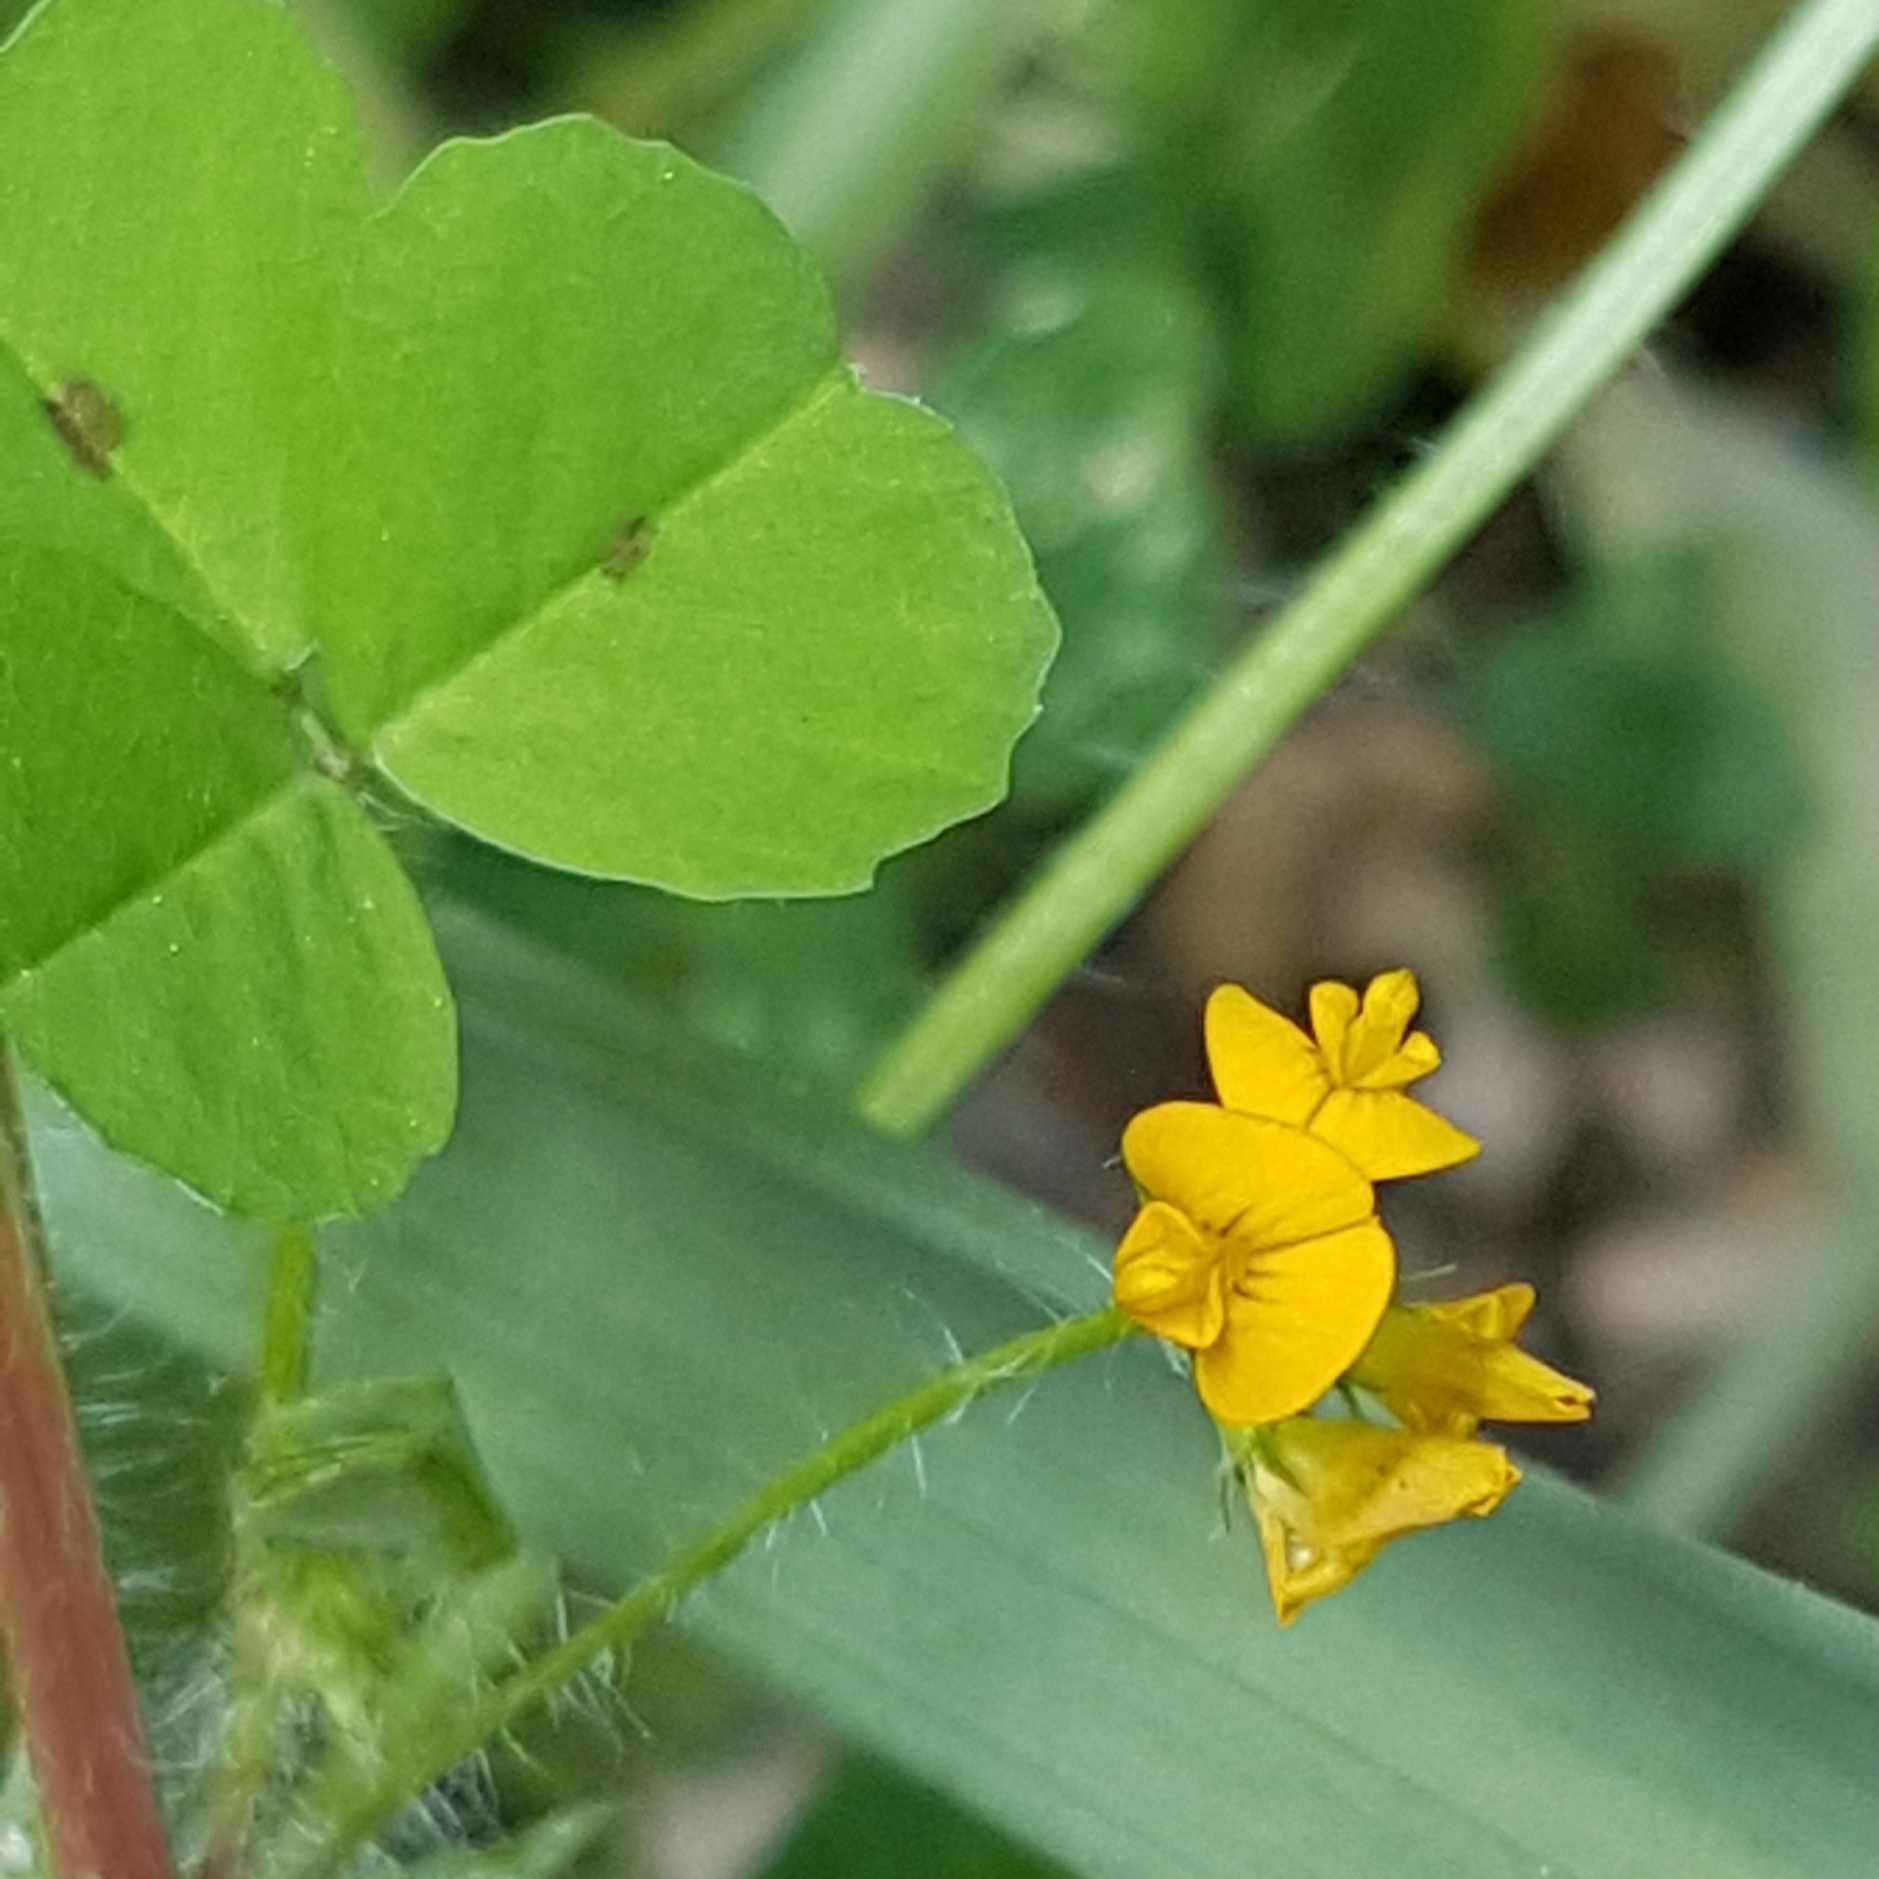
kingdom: Plantae
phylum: Tracheophyta
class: Magnoliopsida
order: Fabales
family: Fabaceae
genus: Medicago
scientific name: Medicago arabica
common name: Spotted medick
